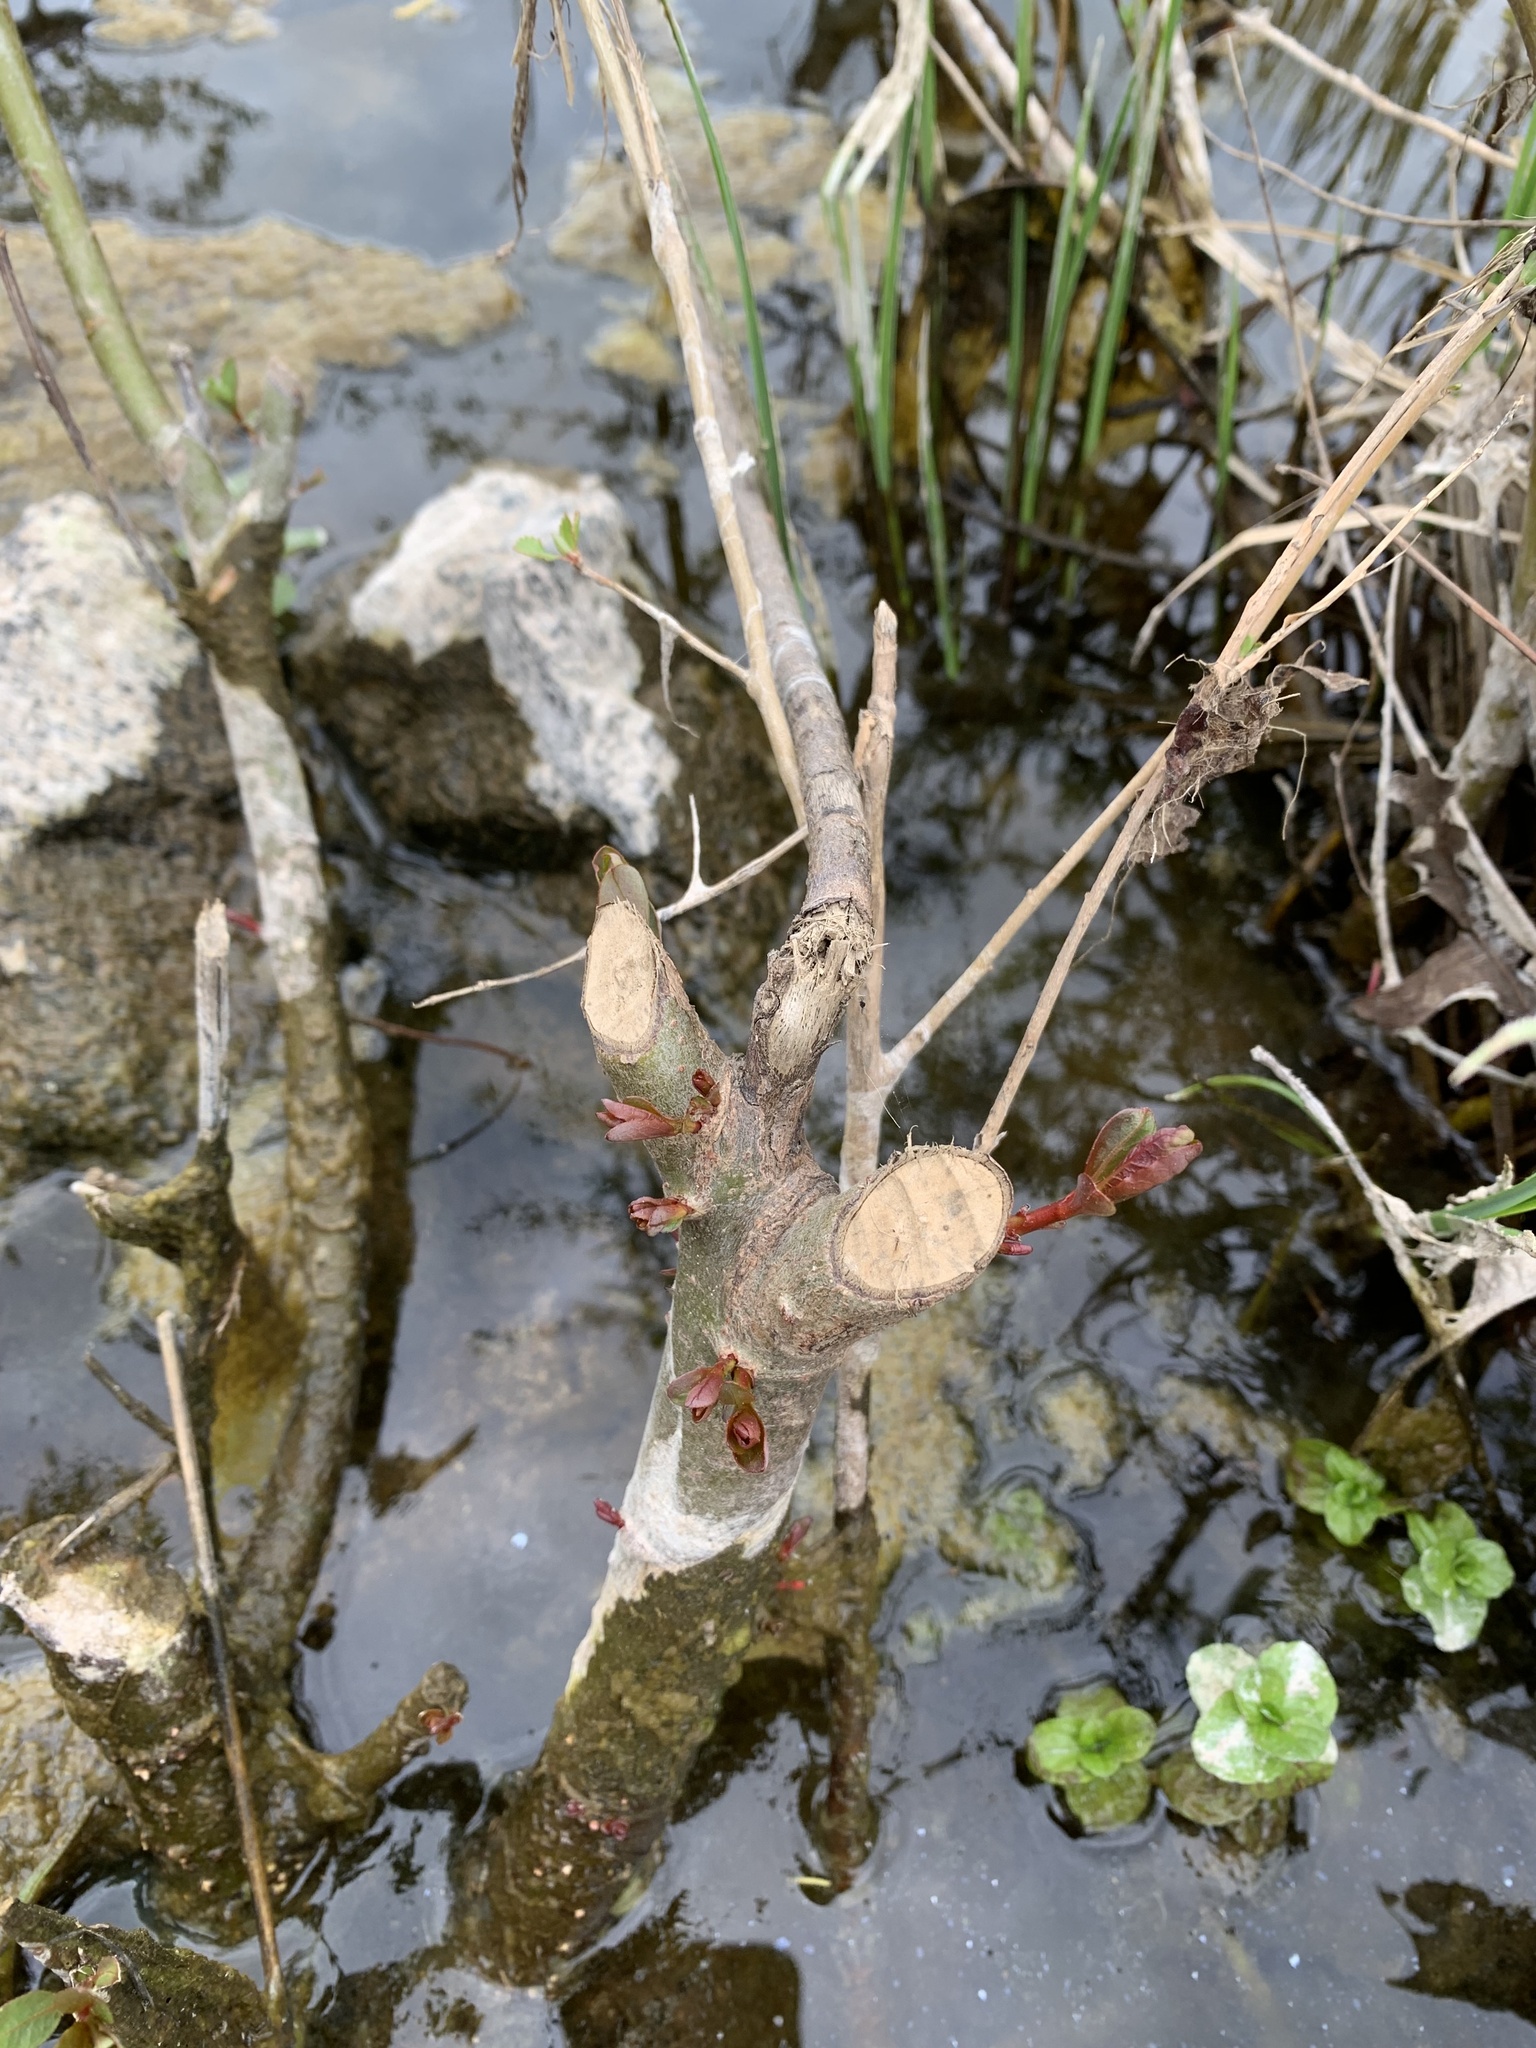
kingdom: Animalia
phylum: Chordata
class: Mammalia
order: Rodentia
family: Castoridae
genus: Castor
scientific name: Castor canadensis
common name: American beaver
